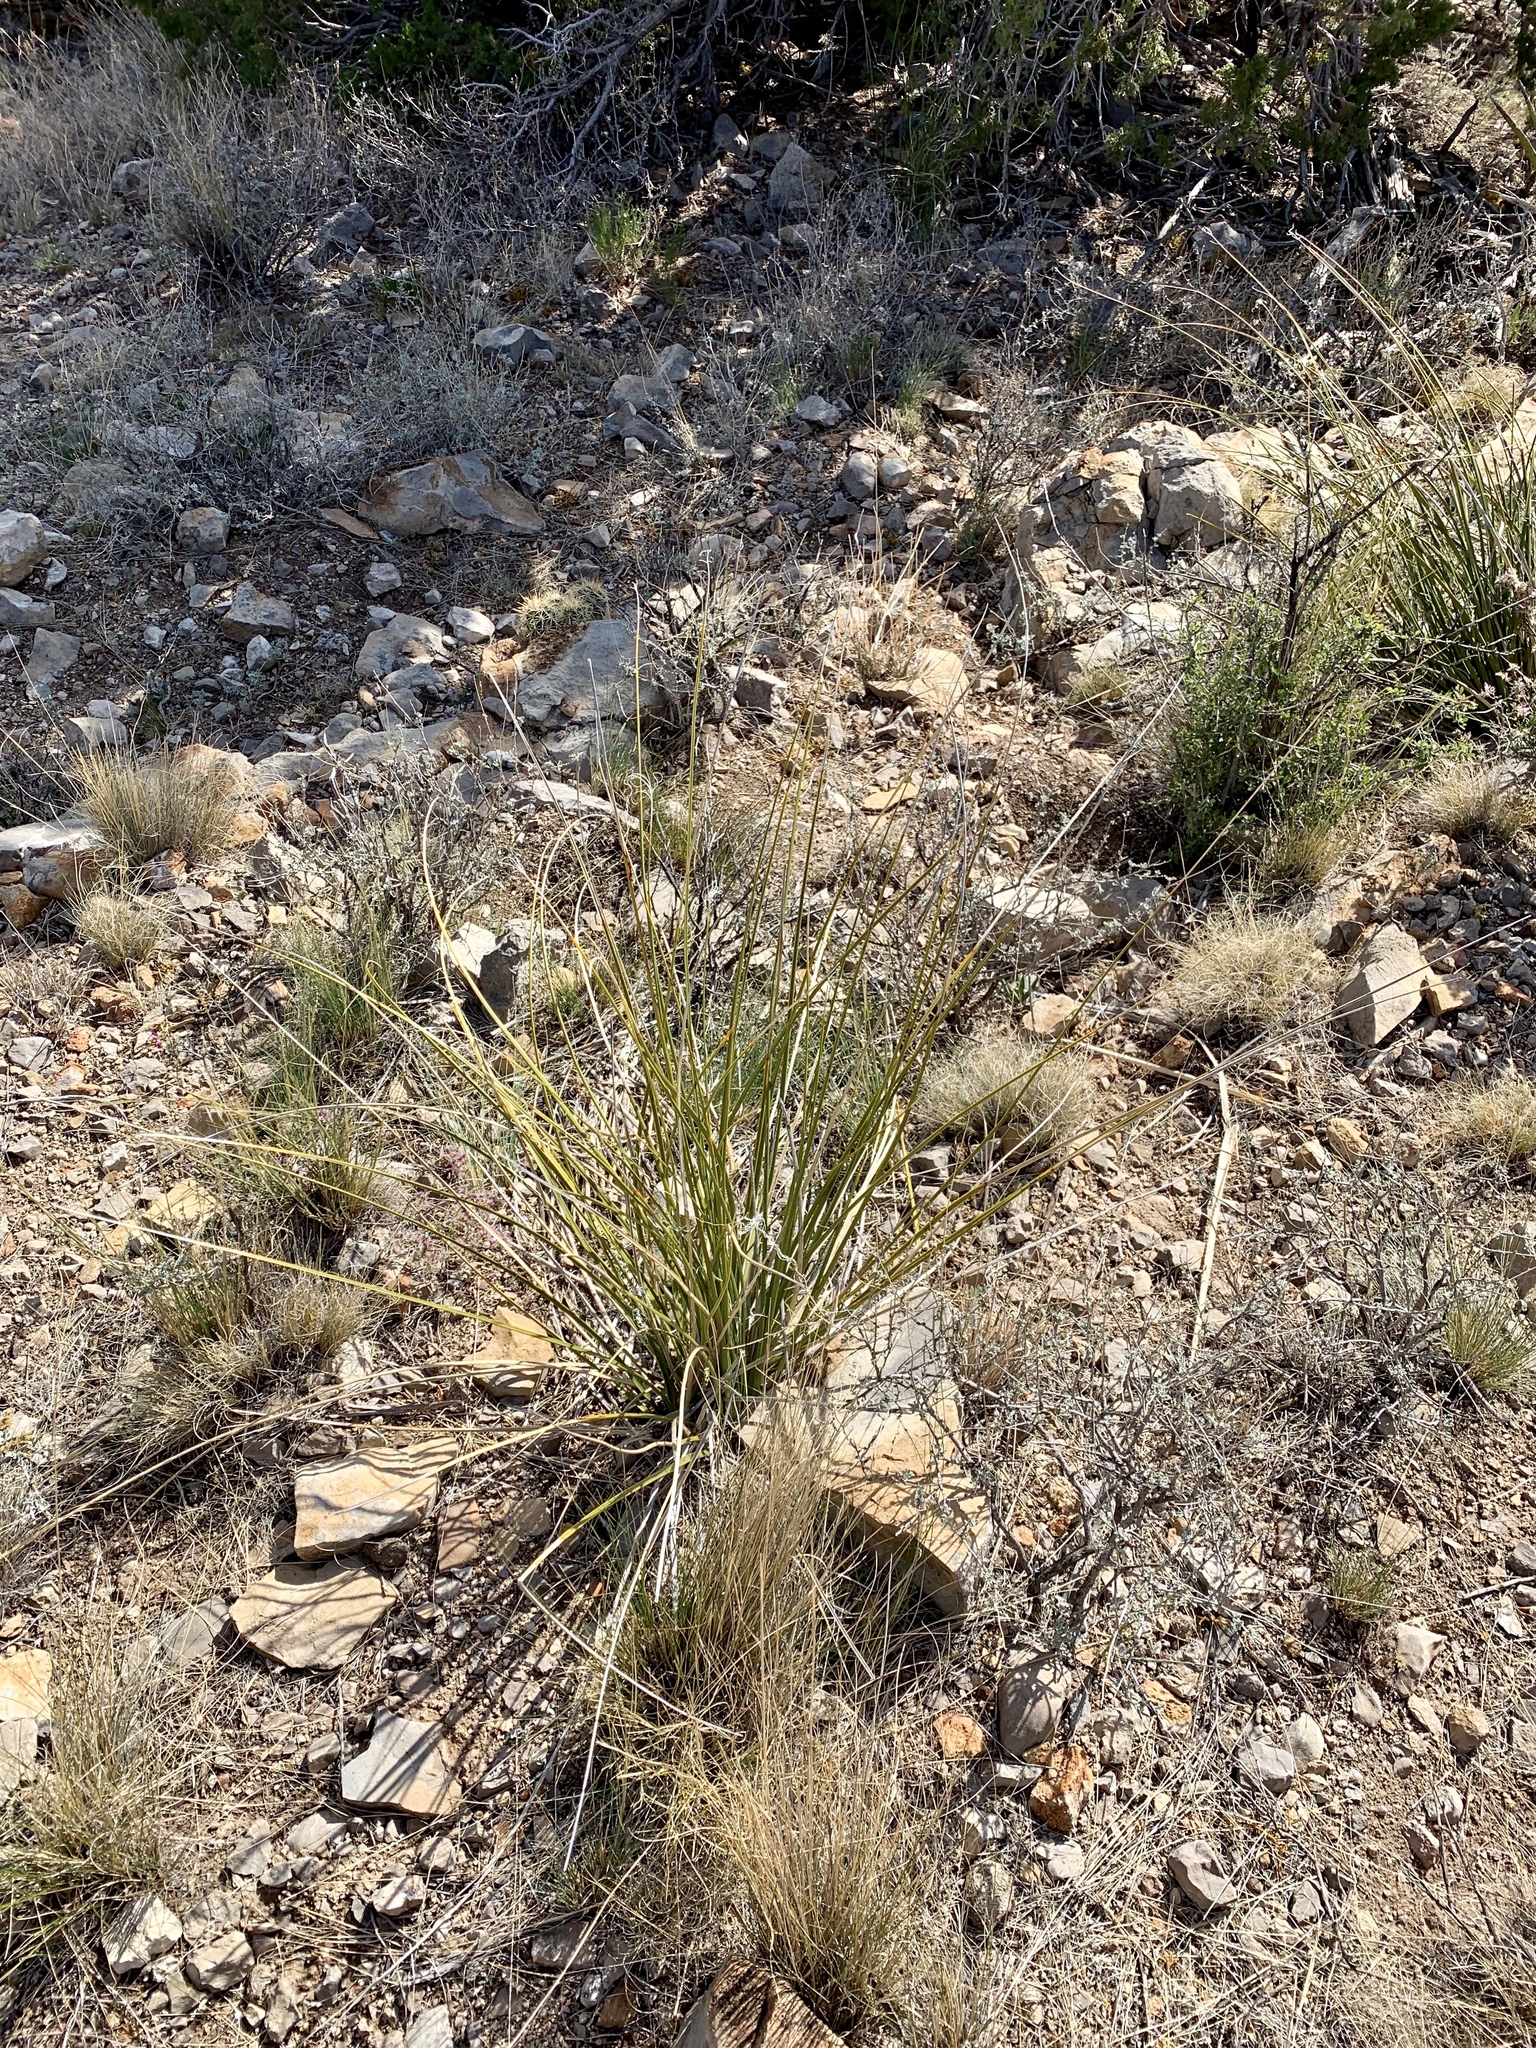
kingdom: Plantae
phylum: Tracheophyta
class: Liliopsida
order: Asparagales
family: Asparagaceae
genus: Nolina
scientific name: Nolina microcarpa
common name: Bear-grass
